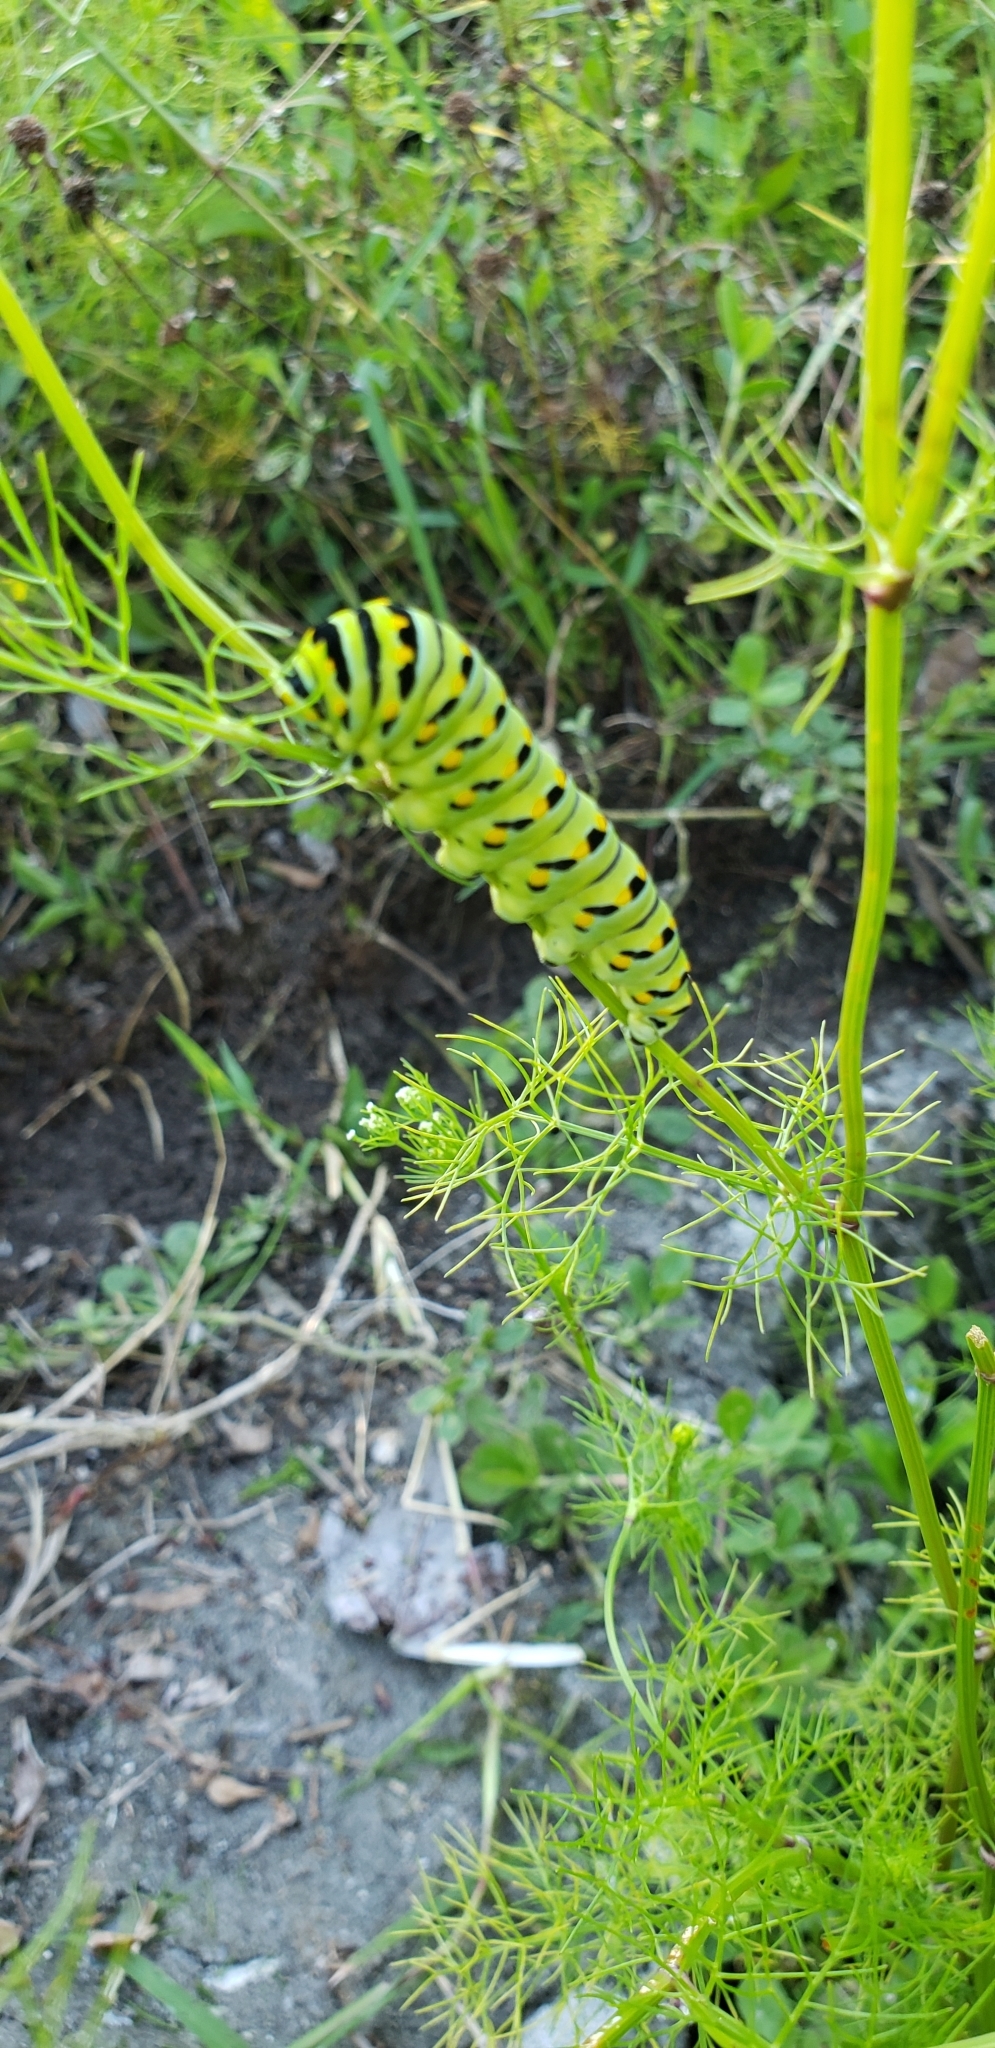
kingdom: Plantae
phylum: Tracheophyta
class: Magnoliopsida
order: Apiales
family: Apiaceae
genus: Ptilimnium
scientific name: Ptilimnium capillaceum
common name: Herbwilliam
